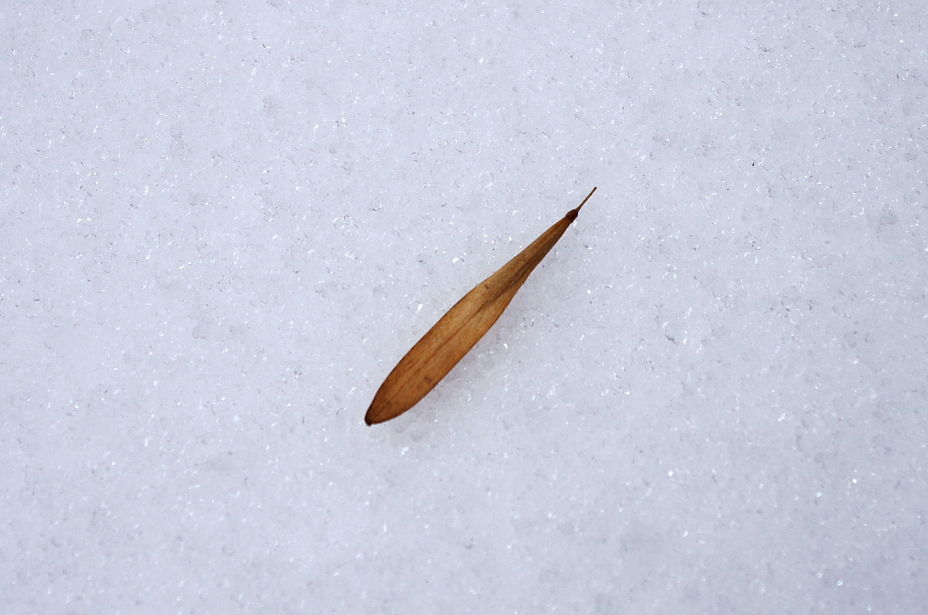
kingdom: Plantae
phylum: Tracheophyta
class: Magnoliopsida
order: Lamiales
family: Oleaceae
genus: Fraxinus
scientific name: Fraxinus pennsylvanica
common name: Green ash
